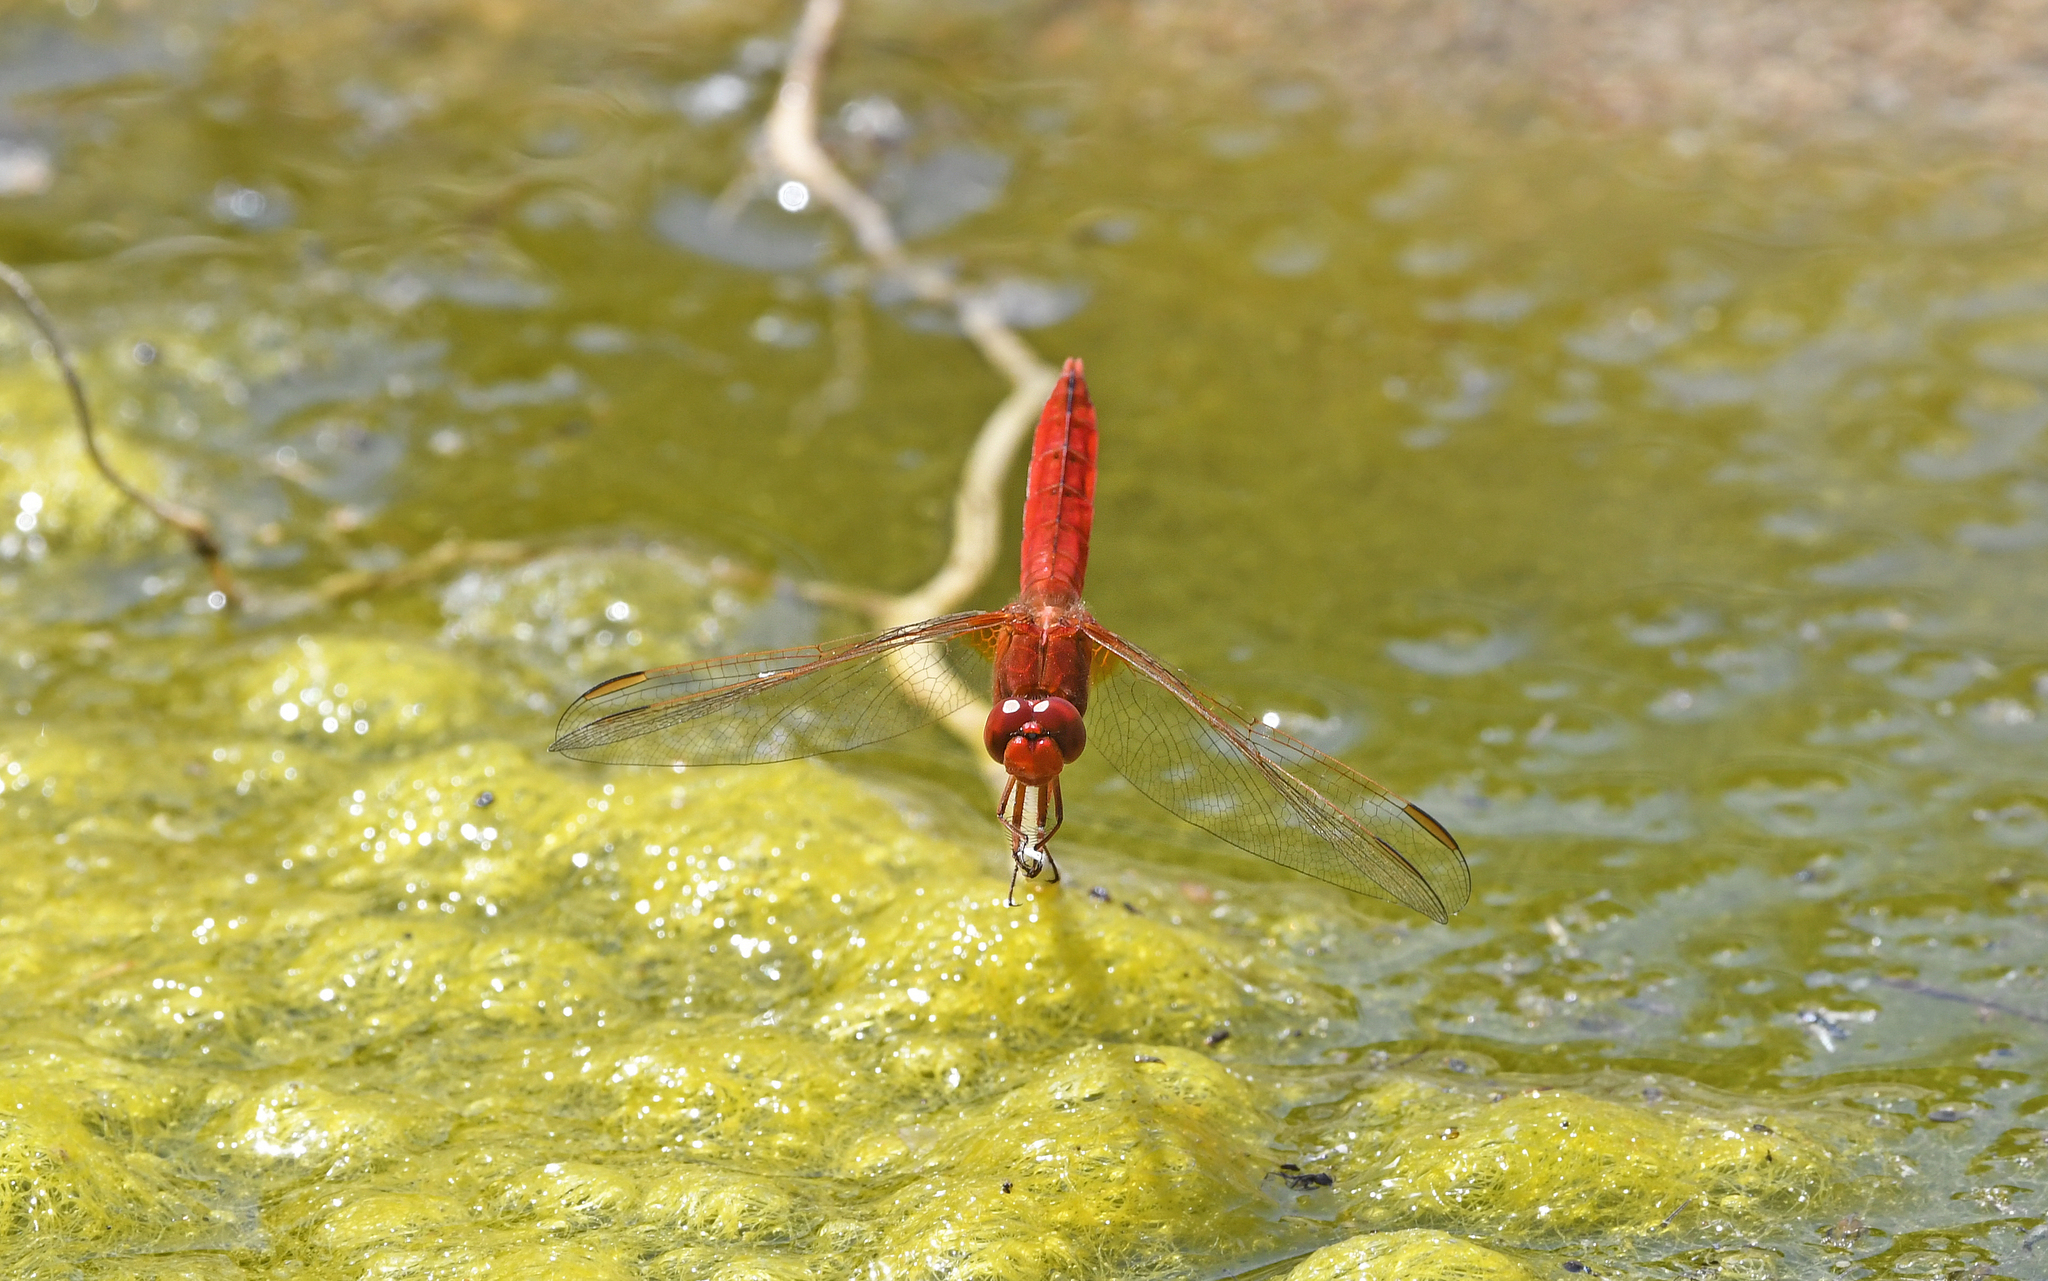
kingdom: Animalia
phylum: Arthropoda
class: Insecta
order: Odonata
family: Libellulidae
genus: Crocothemis
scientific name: Crocothemis erythraea
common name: Scarlet dragonfly
